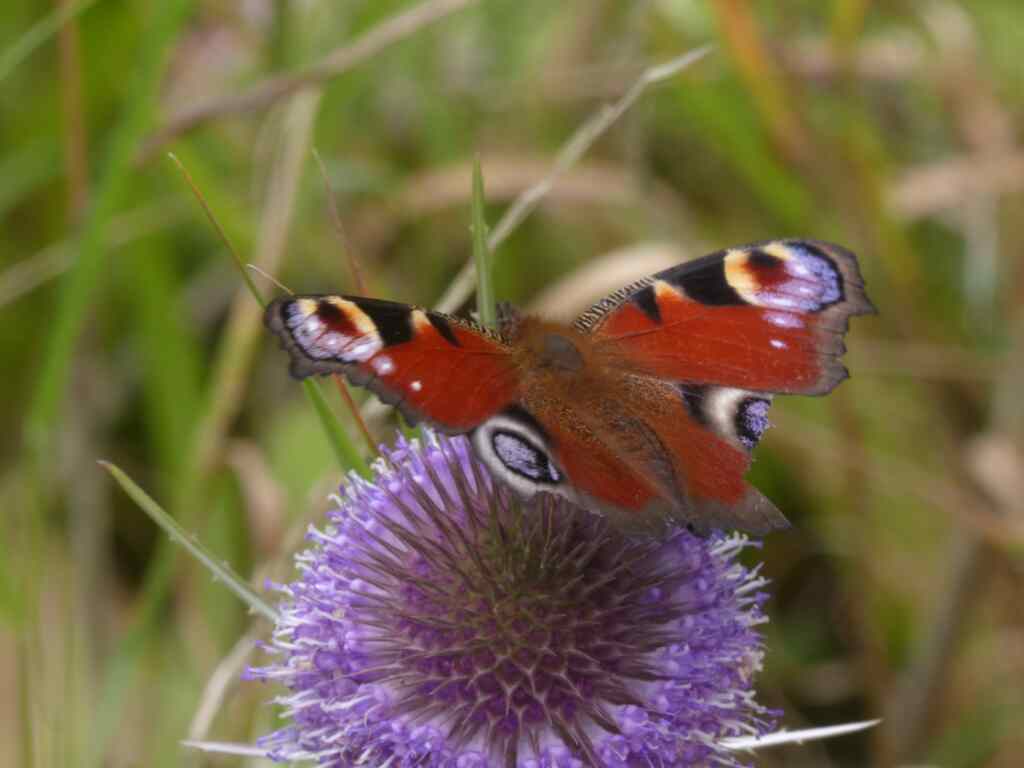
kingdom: Animalia
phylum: Arthropoda
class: Insecta
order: Lepidoptera
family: Nymphalidae
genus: Aglais
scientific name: Aglais io
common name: Peacock
